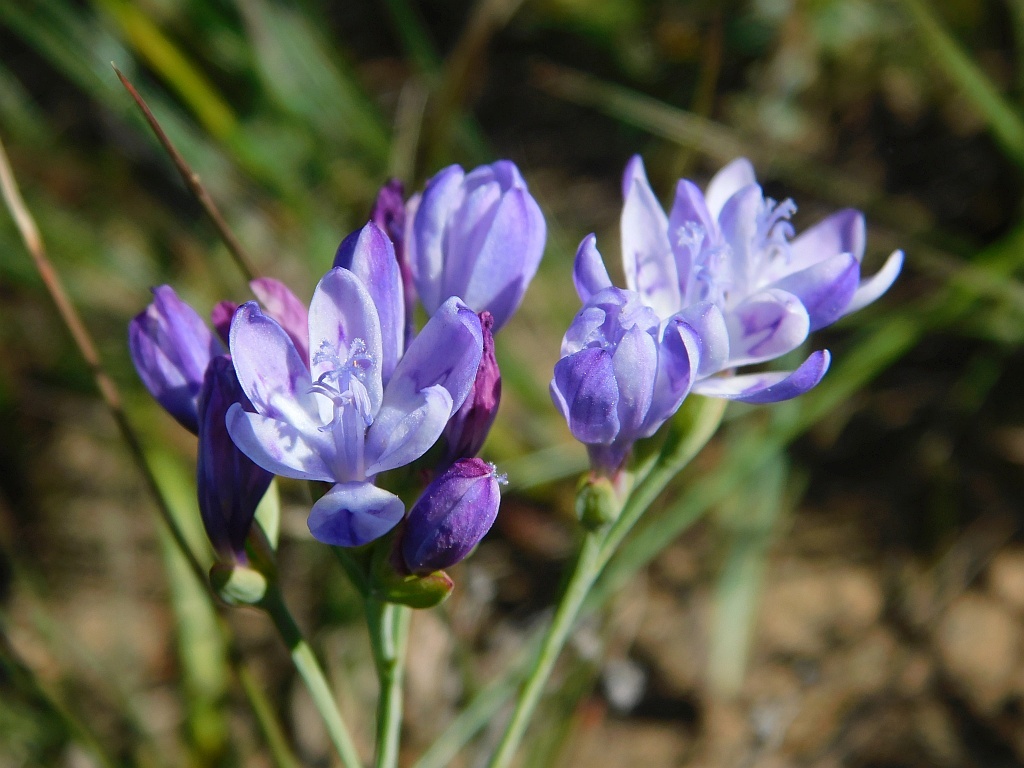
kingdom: Plantae
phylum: Tracheophyta
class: Liliopsida
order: Asparagales
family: Iridaceae
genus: Codonorhiza
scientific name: Codonorhiza corymbosa
